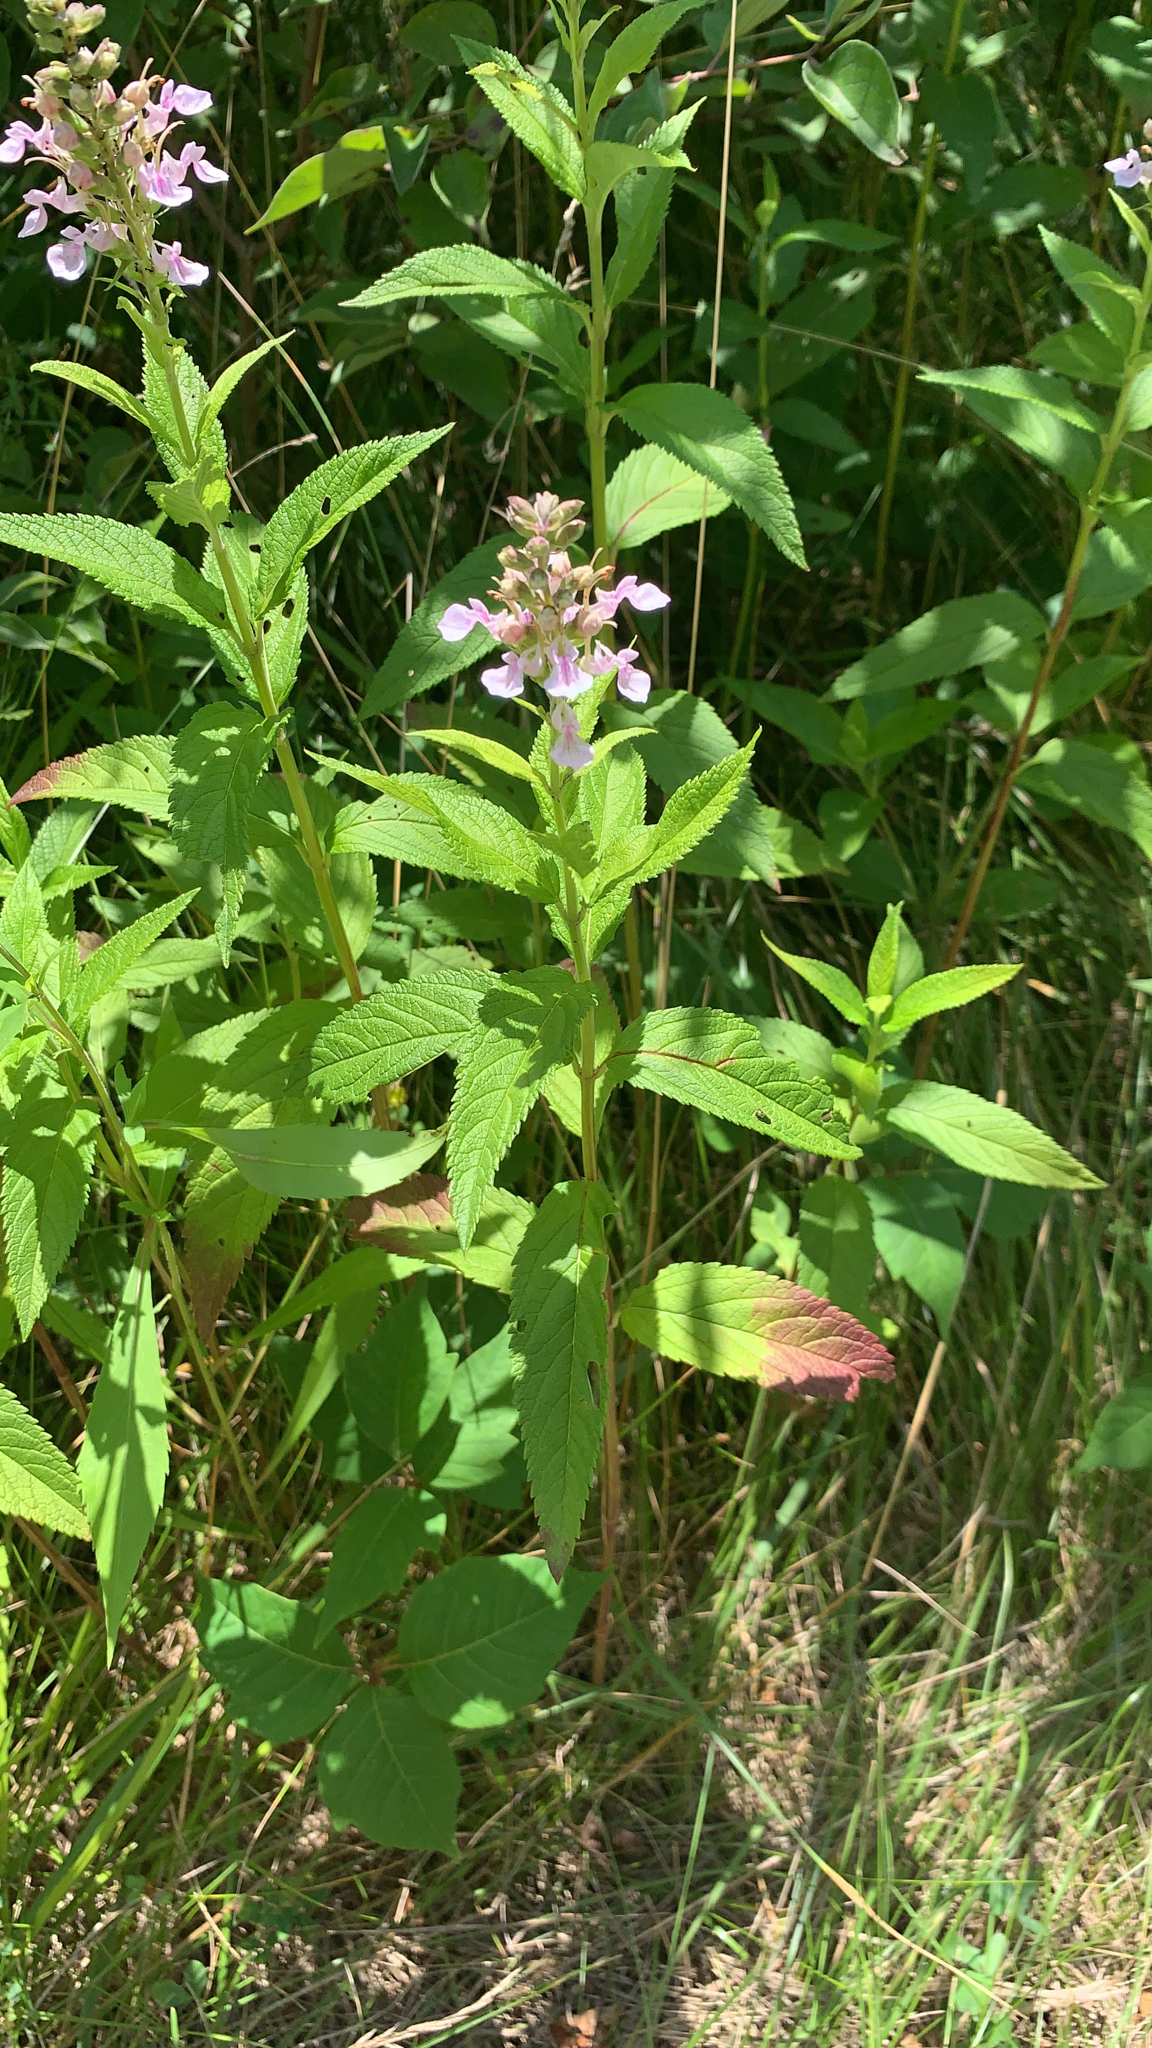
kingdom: Plantae
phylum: Tracheophyta
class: Magnoliopsida
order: Lamiales
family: Lamiaceae
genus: Teucrium
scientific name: Teucrium canadense
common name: American germander
